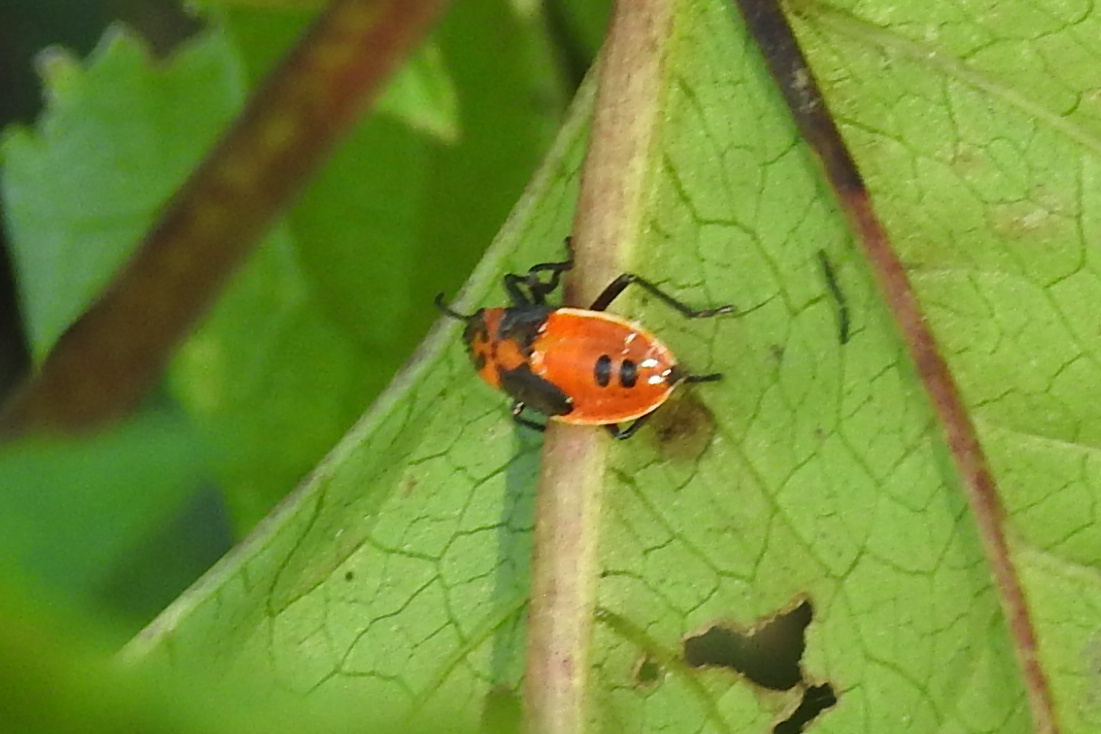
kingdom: Animalia
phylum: Arthropoda
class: Insecta
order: Hemiptera
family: Lygaeidae
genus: Lygaeus
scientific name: Lygaeus turcicus
